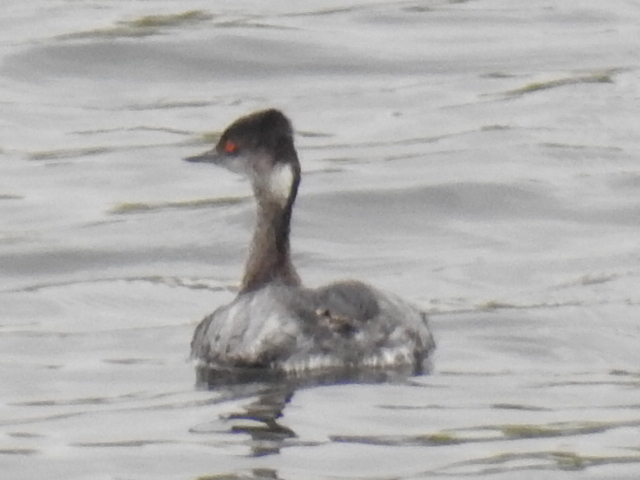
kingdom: Animalia
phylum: Chordata
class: Aves
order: Podicipediformes
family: Podicipedidae
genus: Podiceps
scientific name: Podiceps nigricollis
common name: Black-necked grebe
